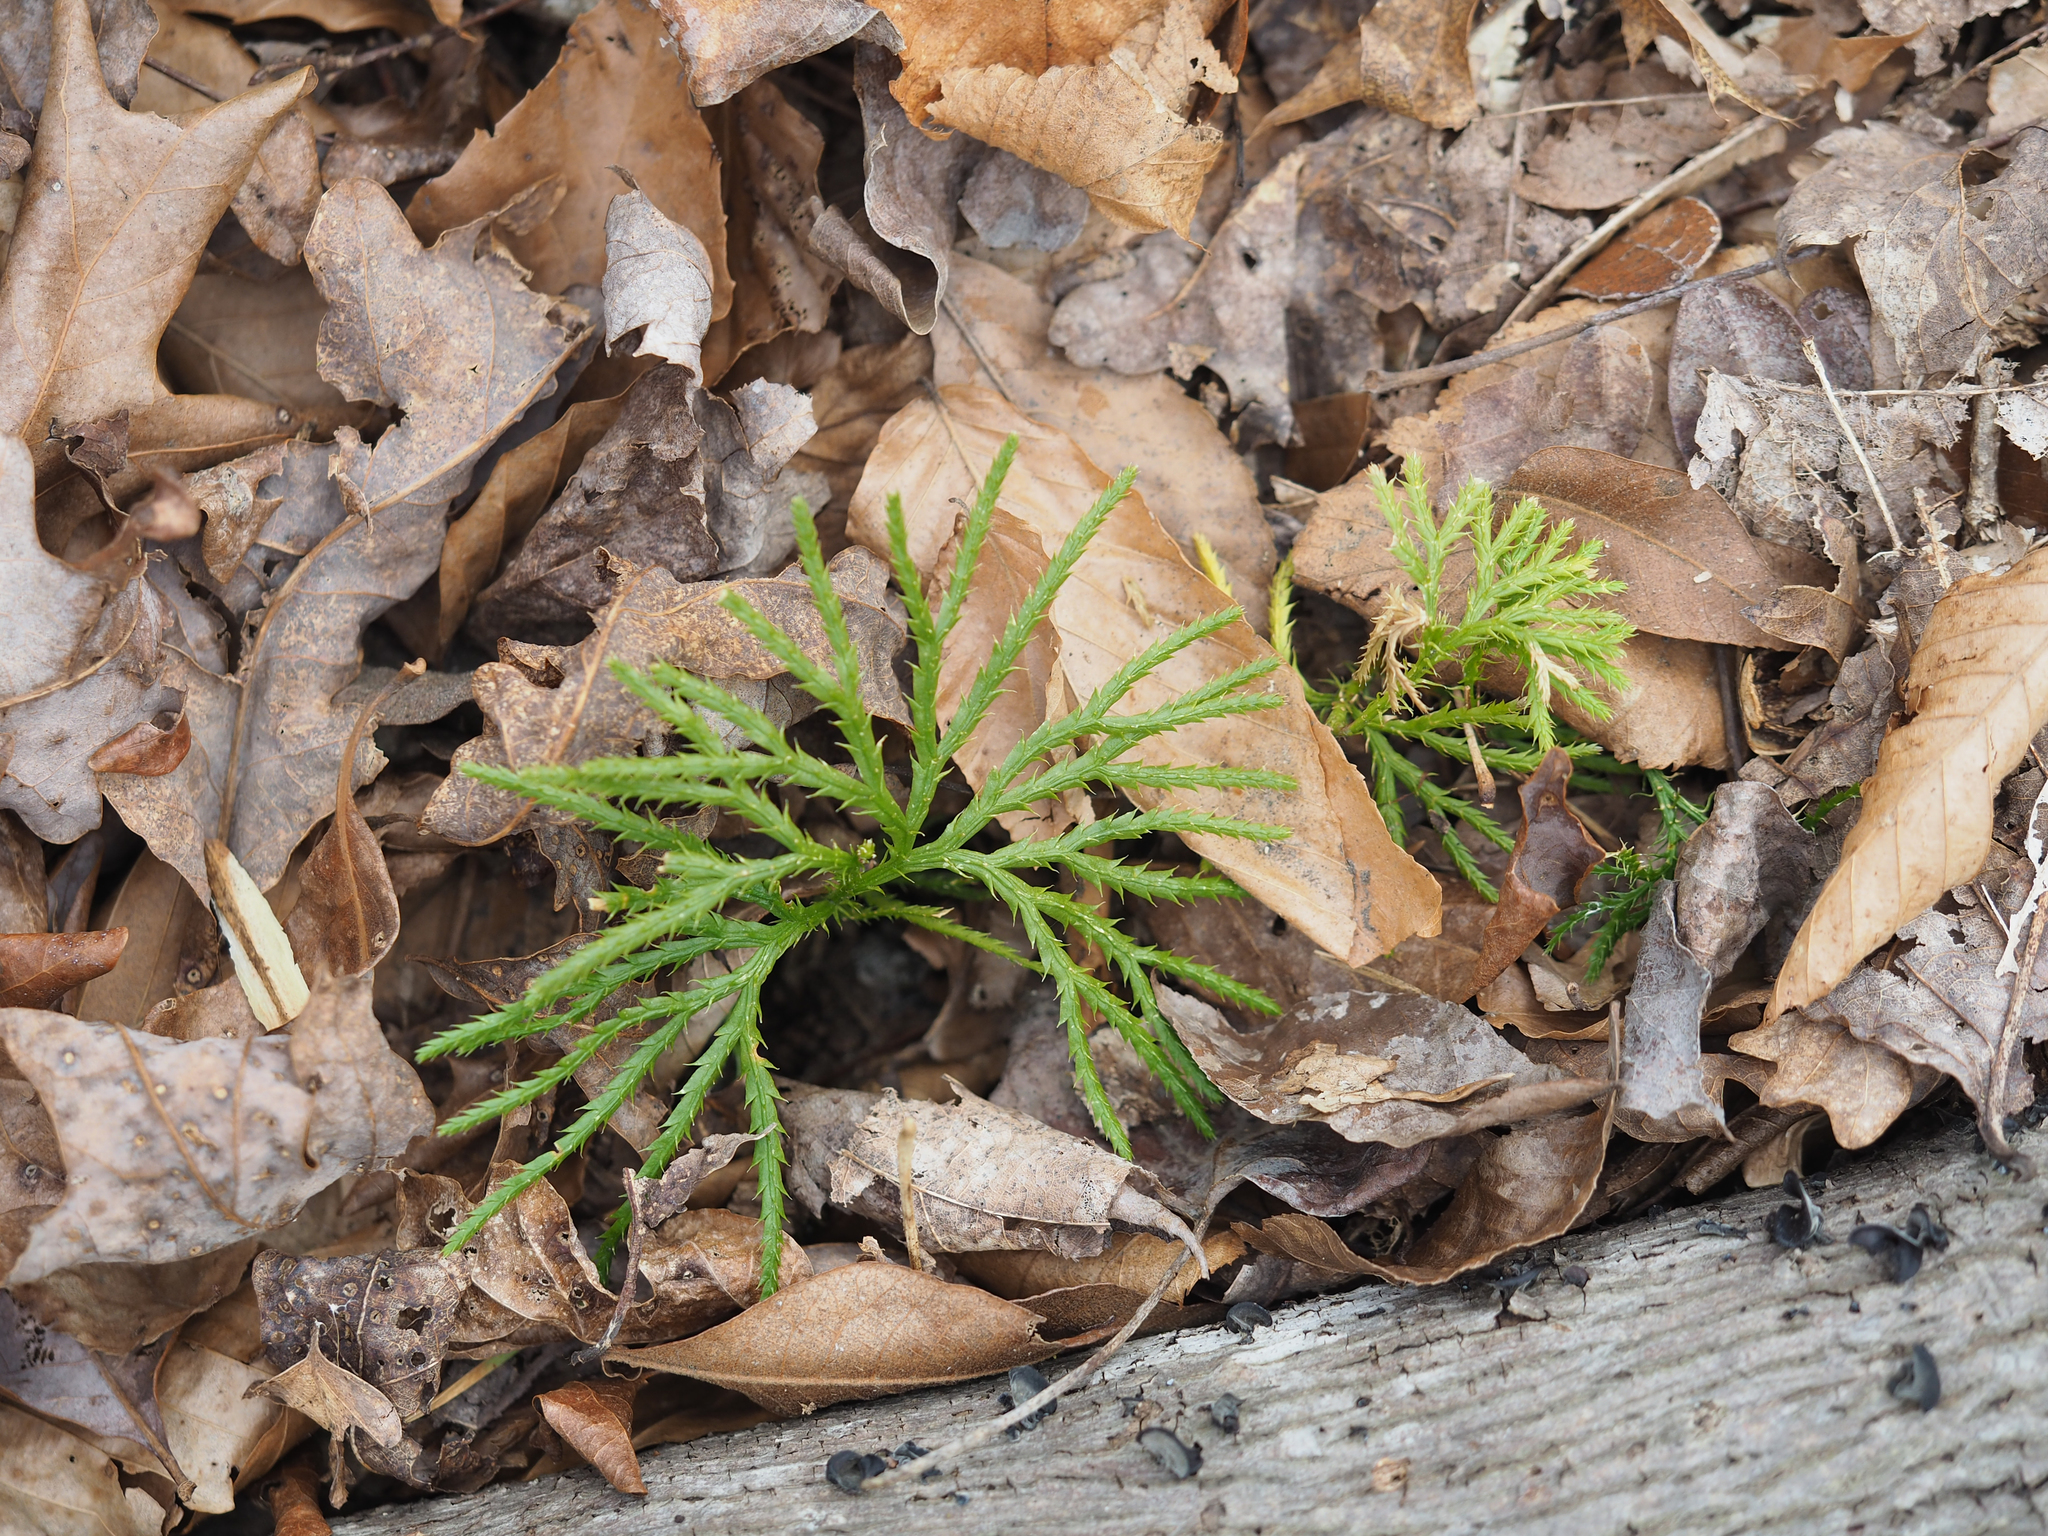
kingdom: Plantae
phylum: Tracheophyta
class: Lycopodiopsida
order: Lycopodiales
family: Lycopodiaceae
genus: Diphasiastrum
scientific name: Diphasiastrum digitatum
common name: Southern running-pine
